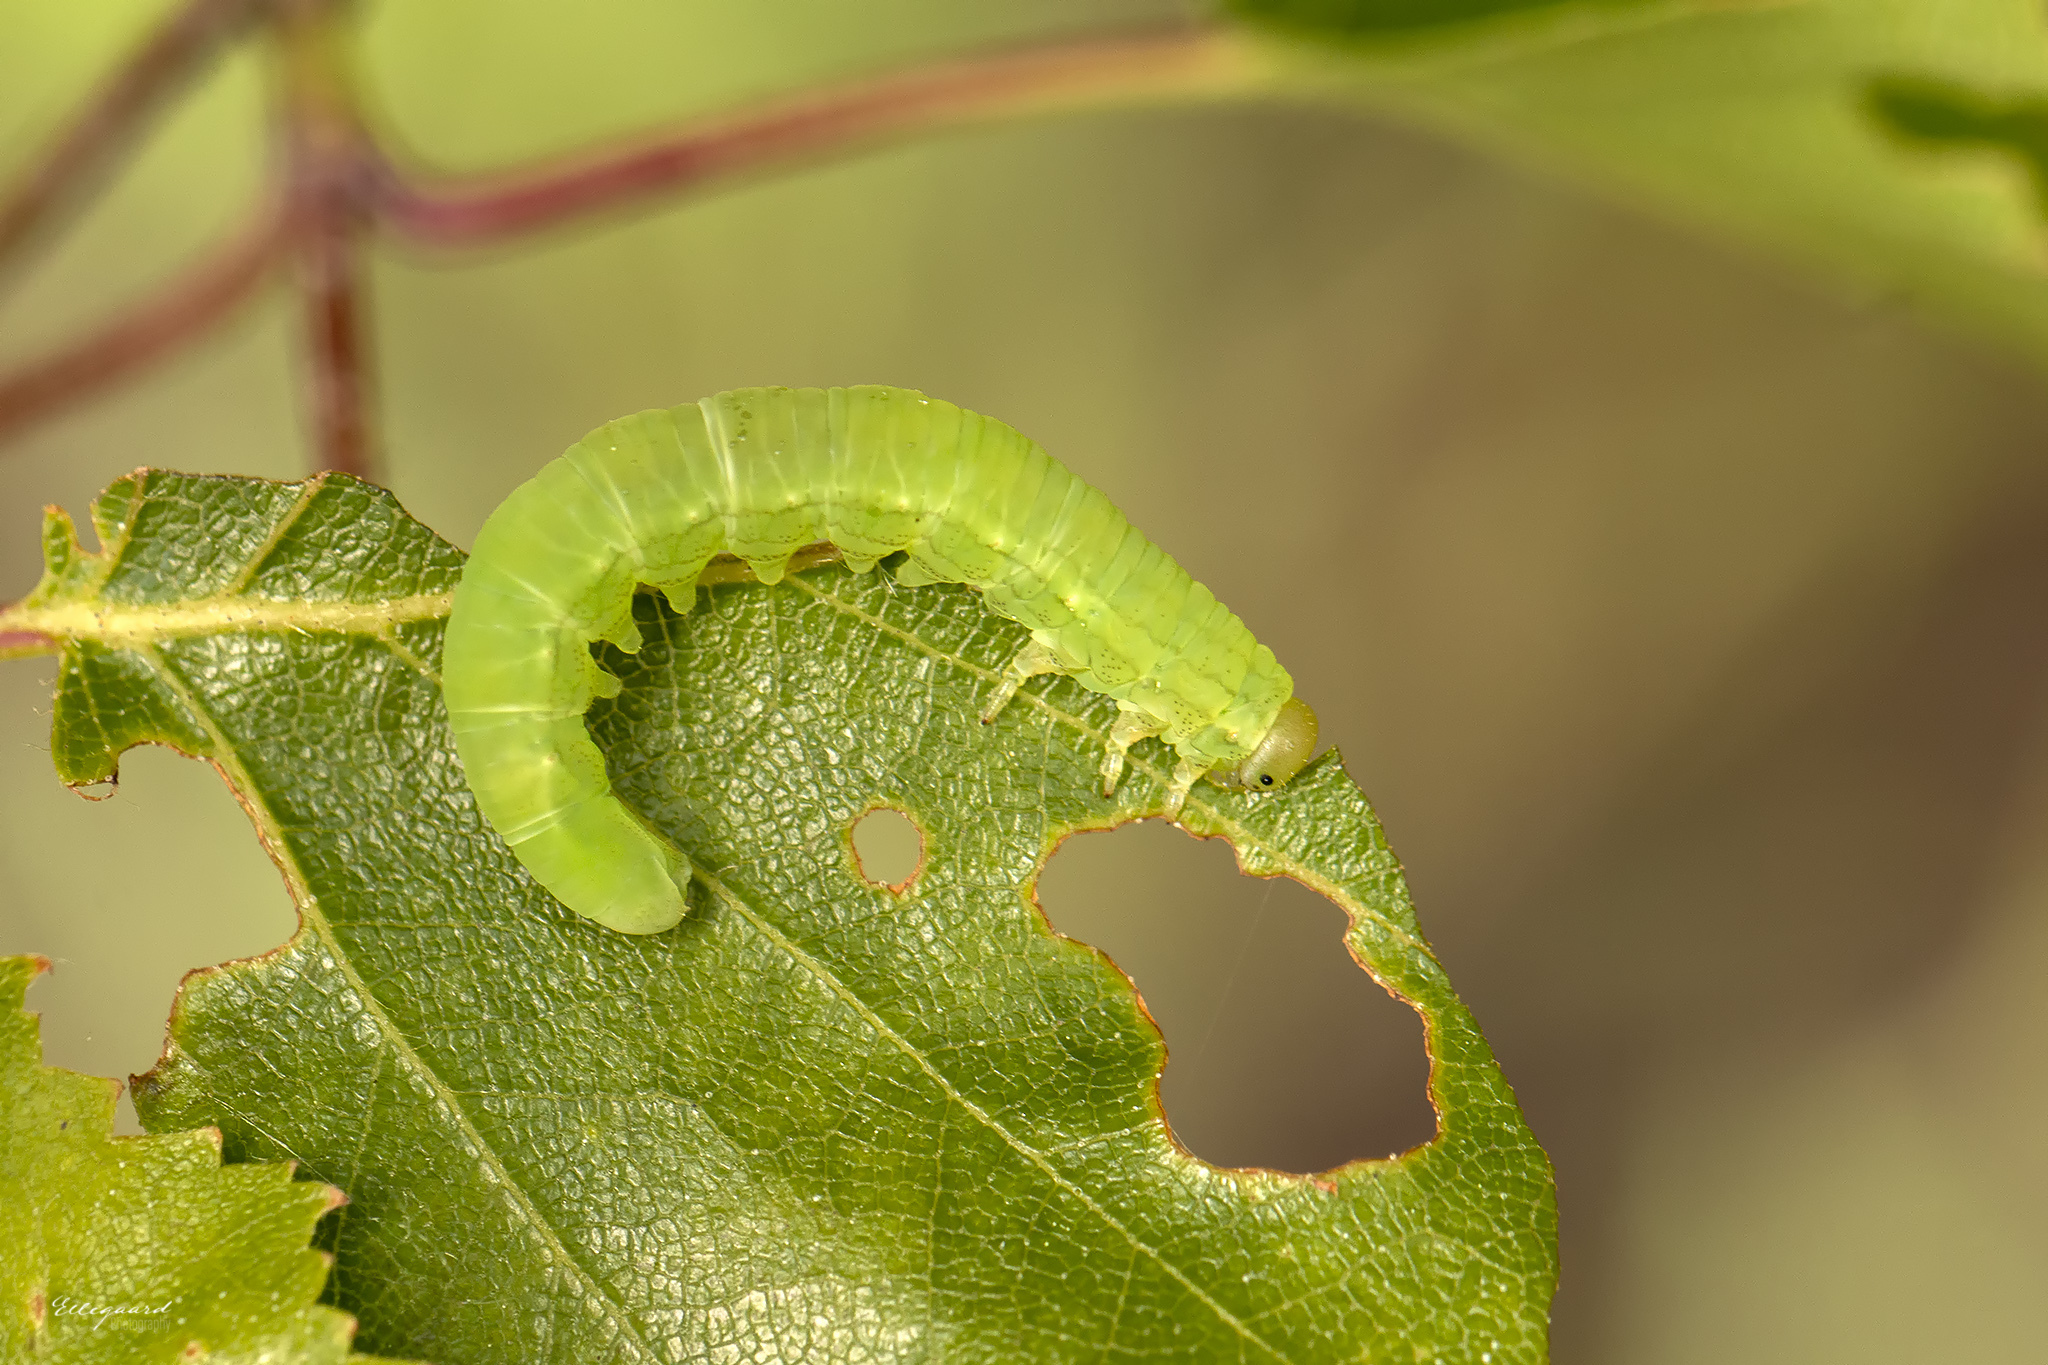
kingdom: Animalia
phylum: Arthropoda
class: Insecta
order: Hymenoptera
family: Tenthredinidae
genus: Amauronematus
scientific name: Amauronematus amplus
